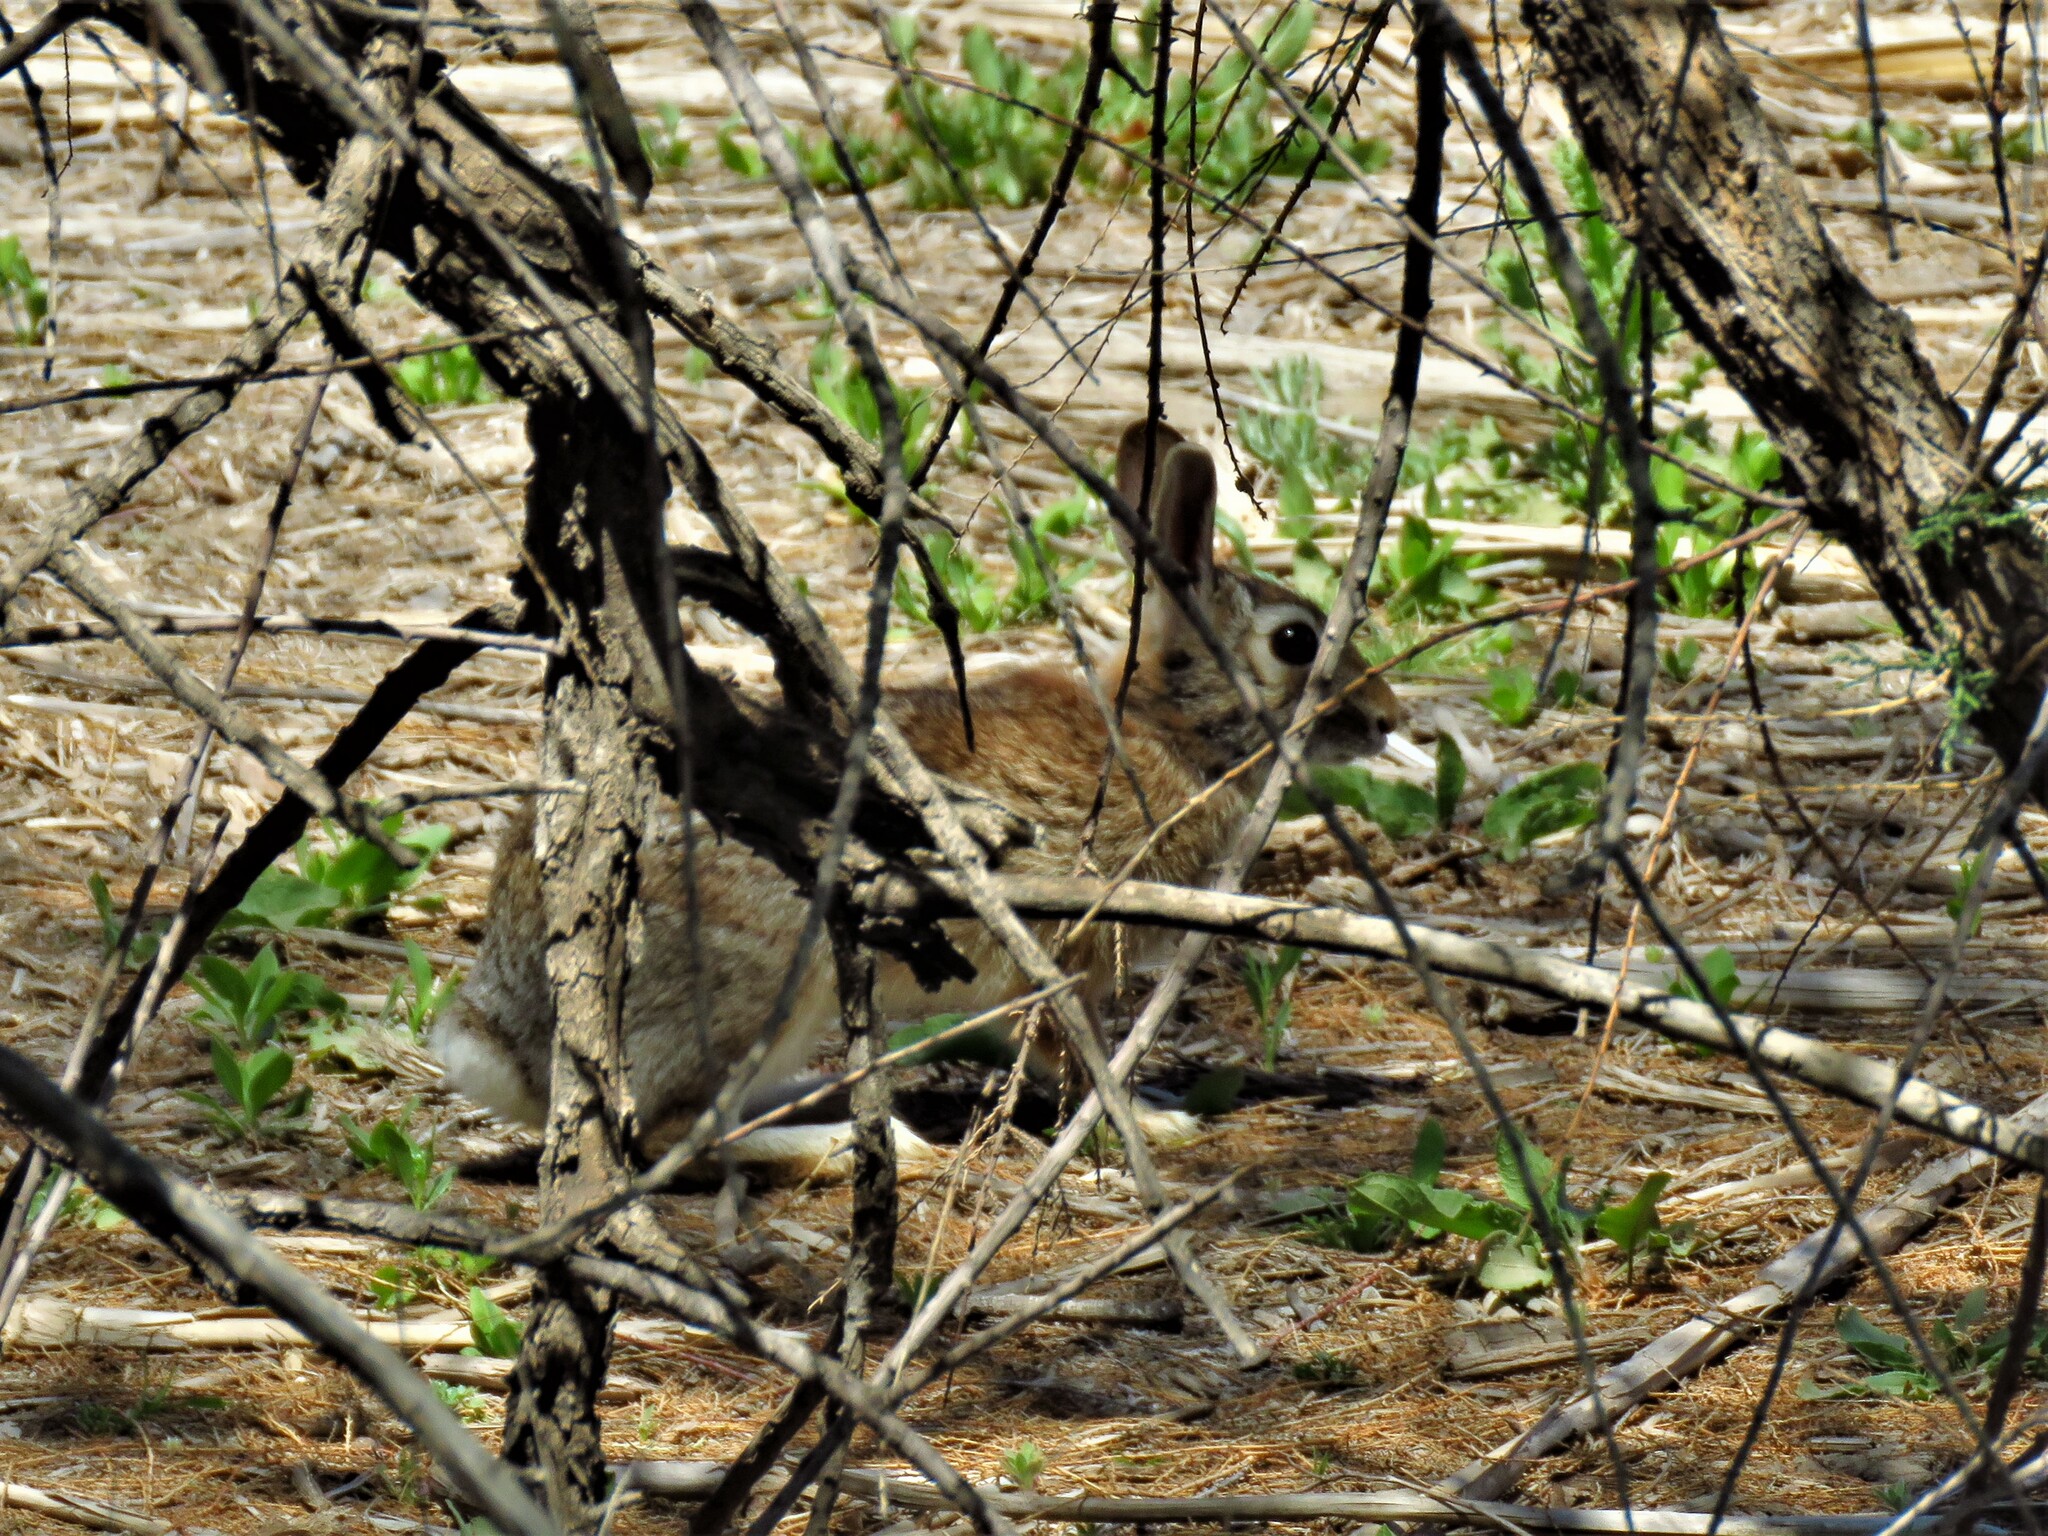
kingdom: Animalia
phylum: Chordata
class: Mammalia
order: Lagomorpha
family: Leporidae
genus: Sylvilagus
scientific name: Sylvilagus audubonii
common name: Desert cottontail
